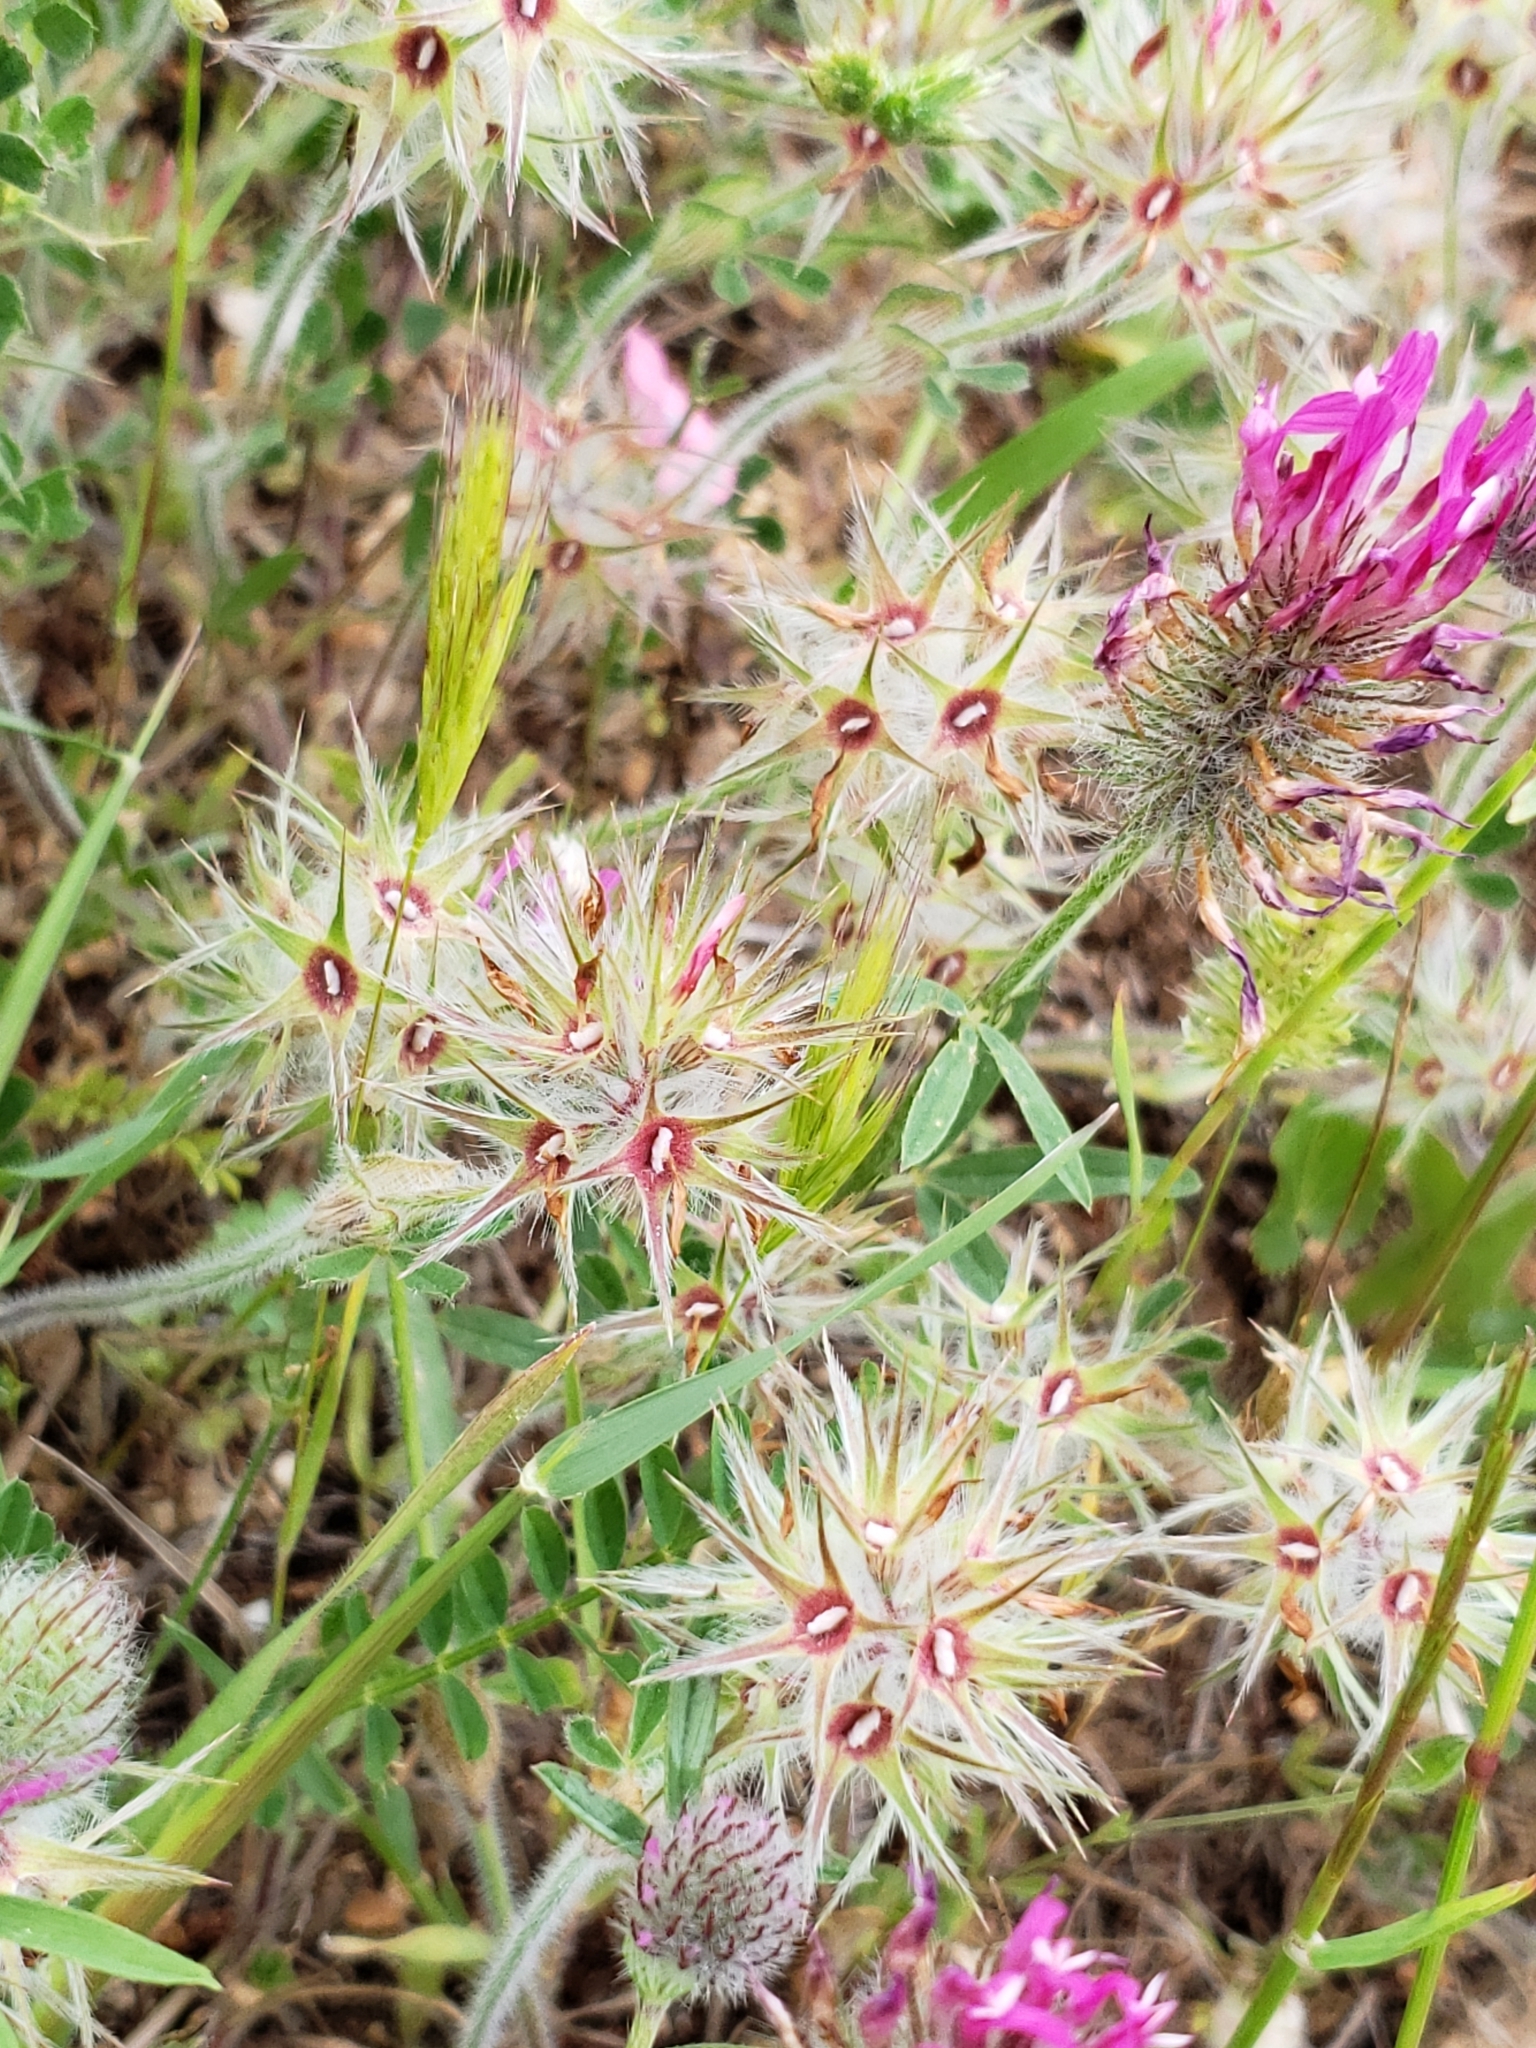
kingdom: Plantae
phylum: Tracheophyta
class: Magnoliopsida
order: Fabales
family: Fabaceae
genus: Trifolium
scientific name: Trifolium stellatum
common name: Starry clover
